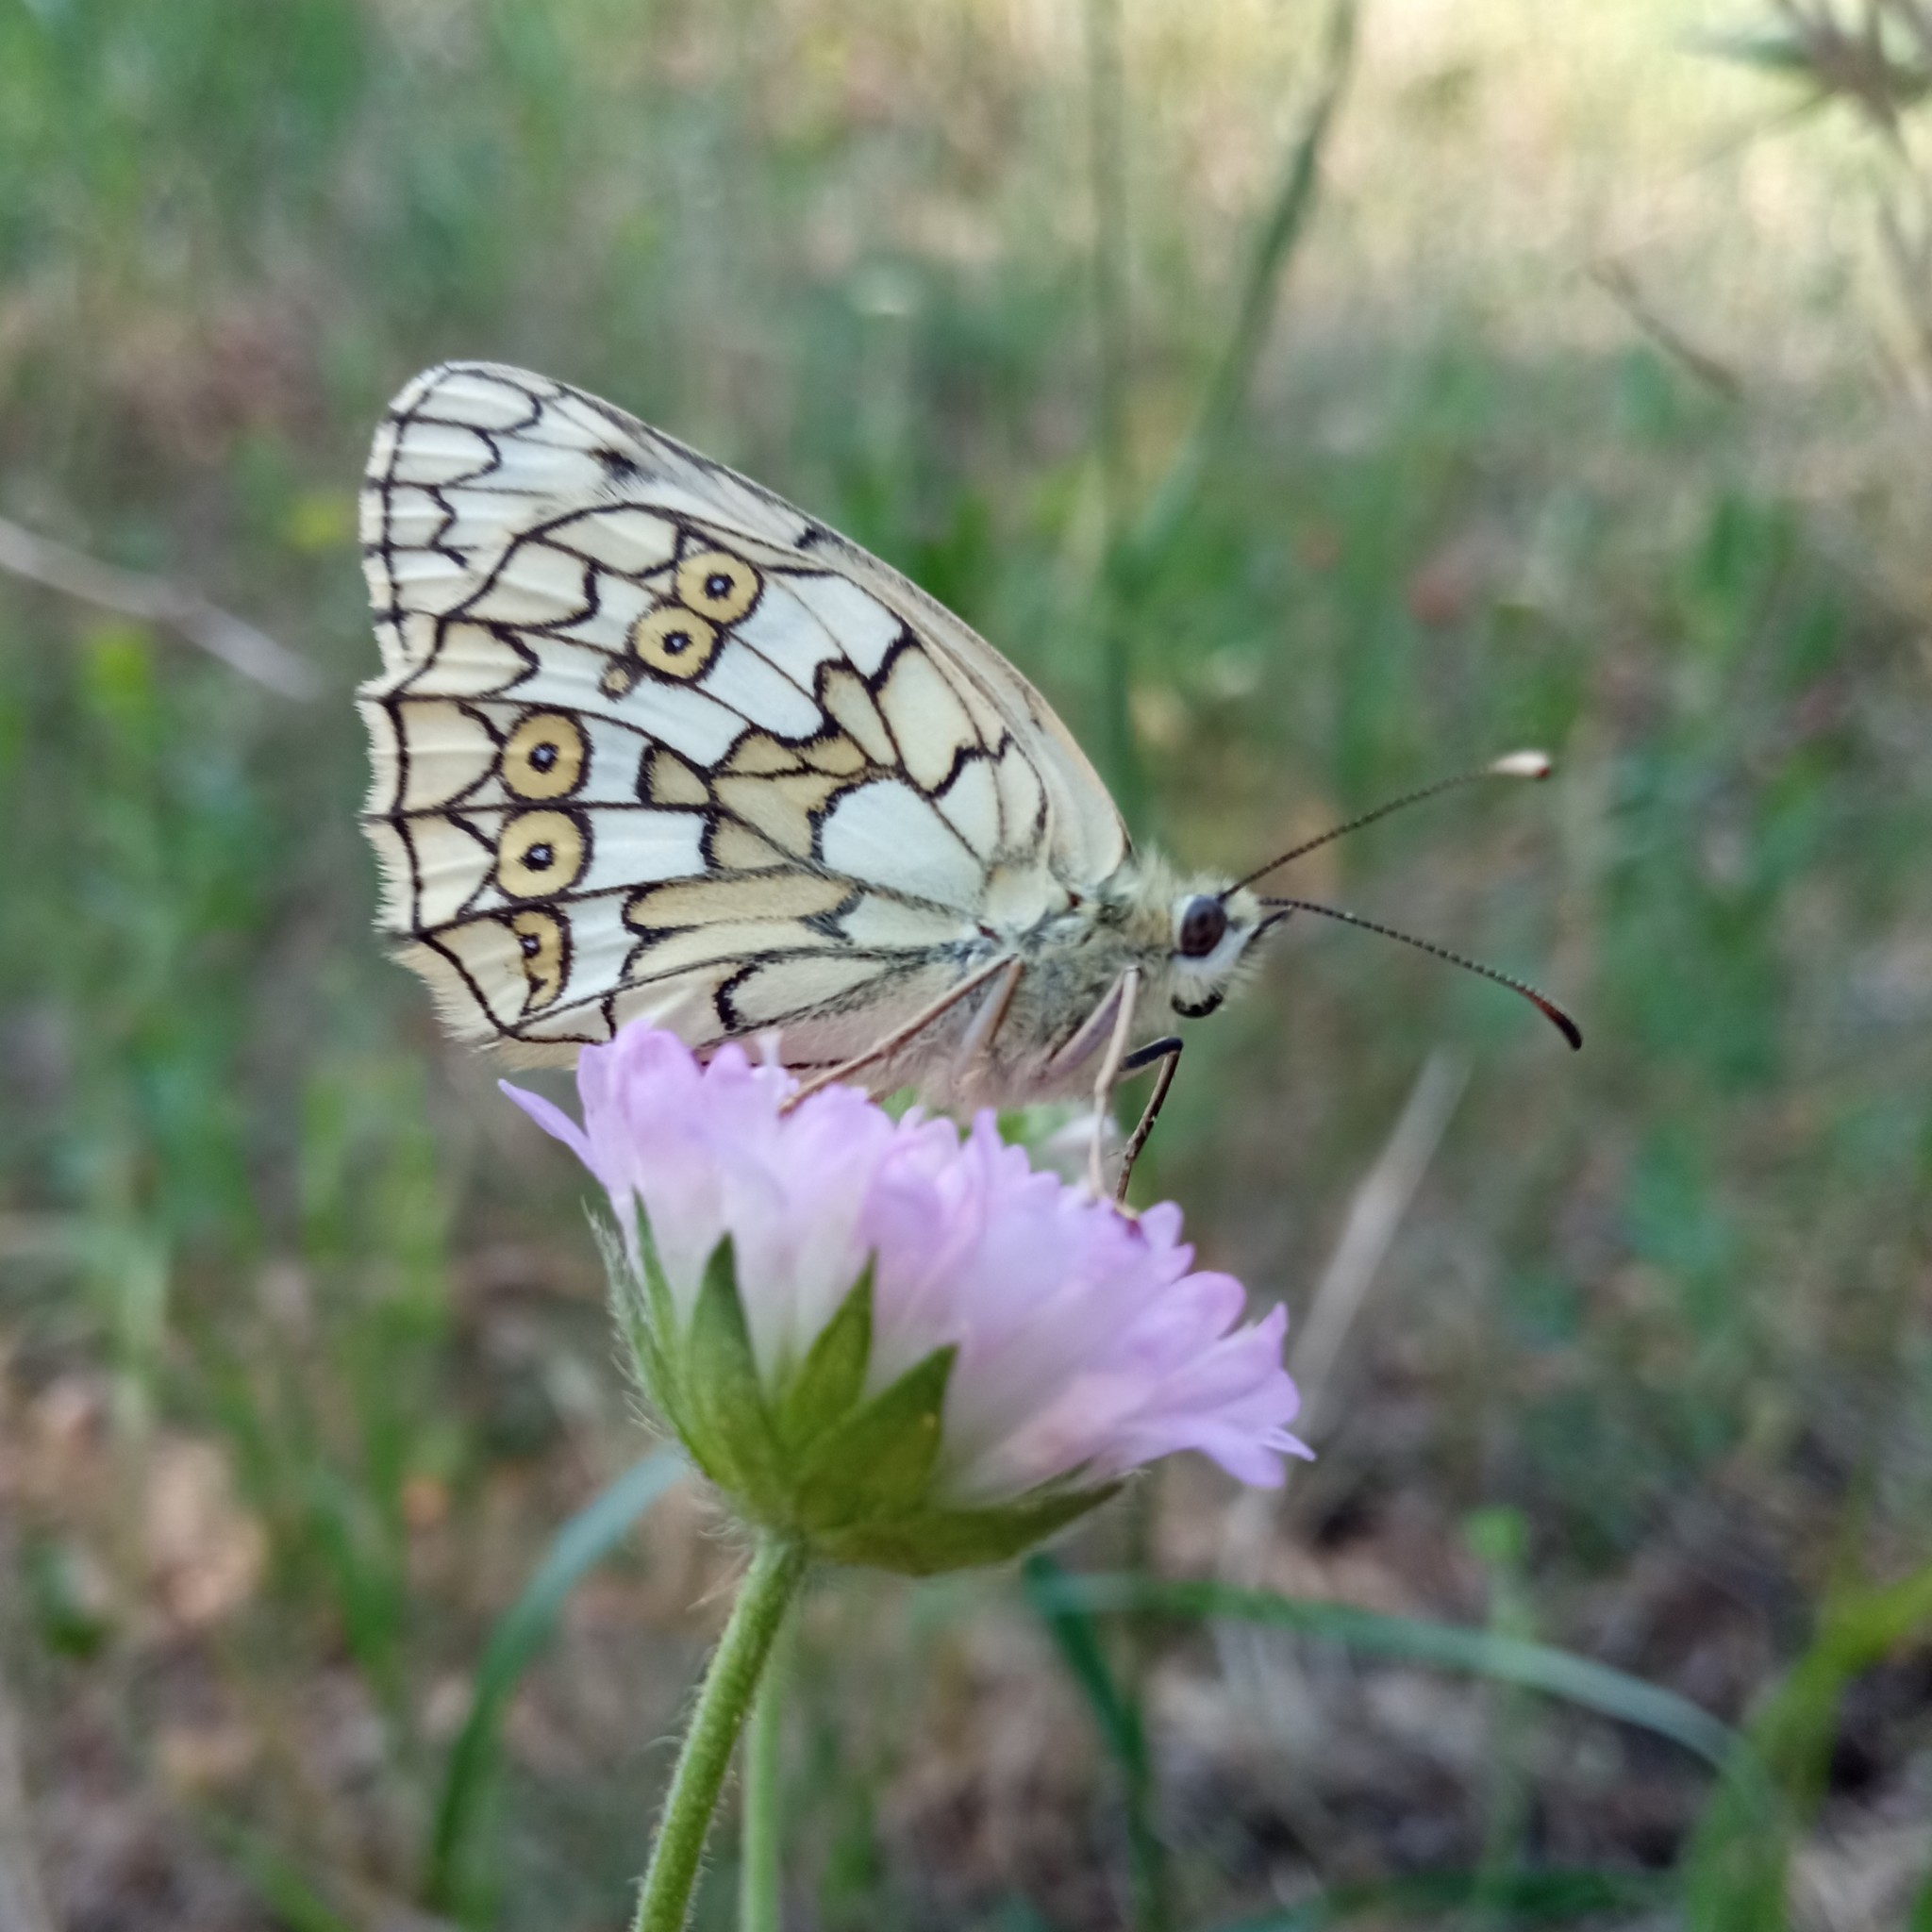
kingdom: Animalia
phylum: Arthropoda
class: Insecta
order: Lepidoptera
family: Nymphalidae
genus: Melanargia
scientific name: Melanargia japygia
